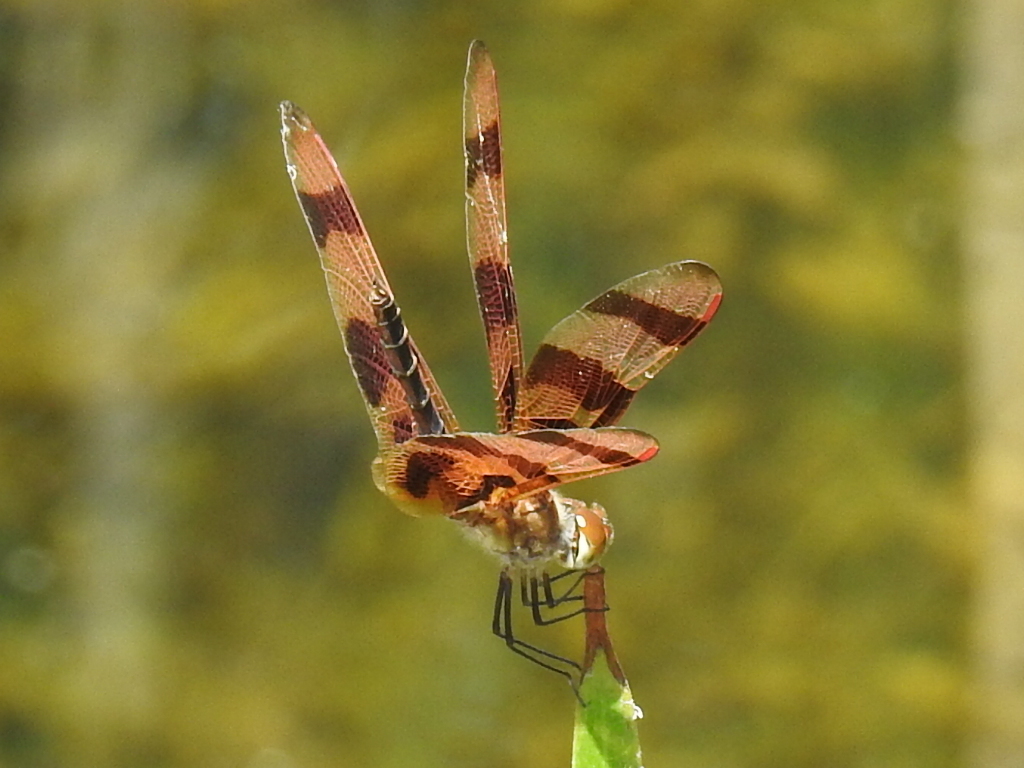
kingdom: Animalia
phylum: Arthropoda
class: Insecta
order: Odonata
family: Libellulidae
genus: Celithemis
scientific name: Celithemis eponina
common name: Halloween pennant
